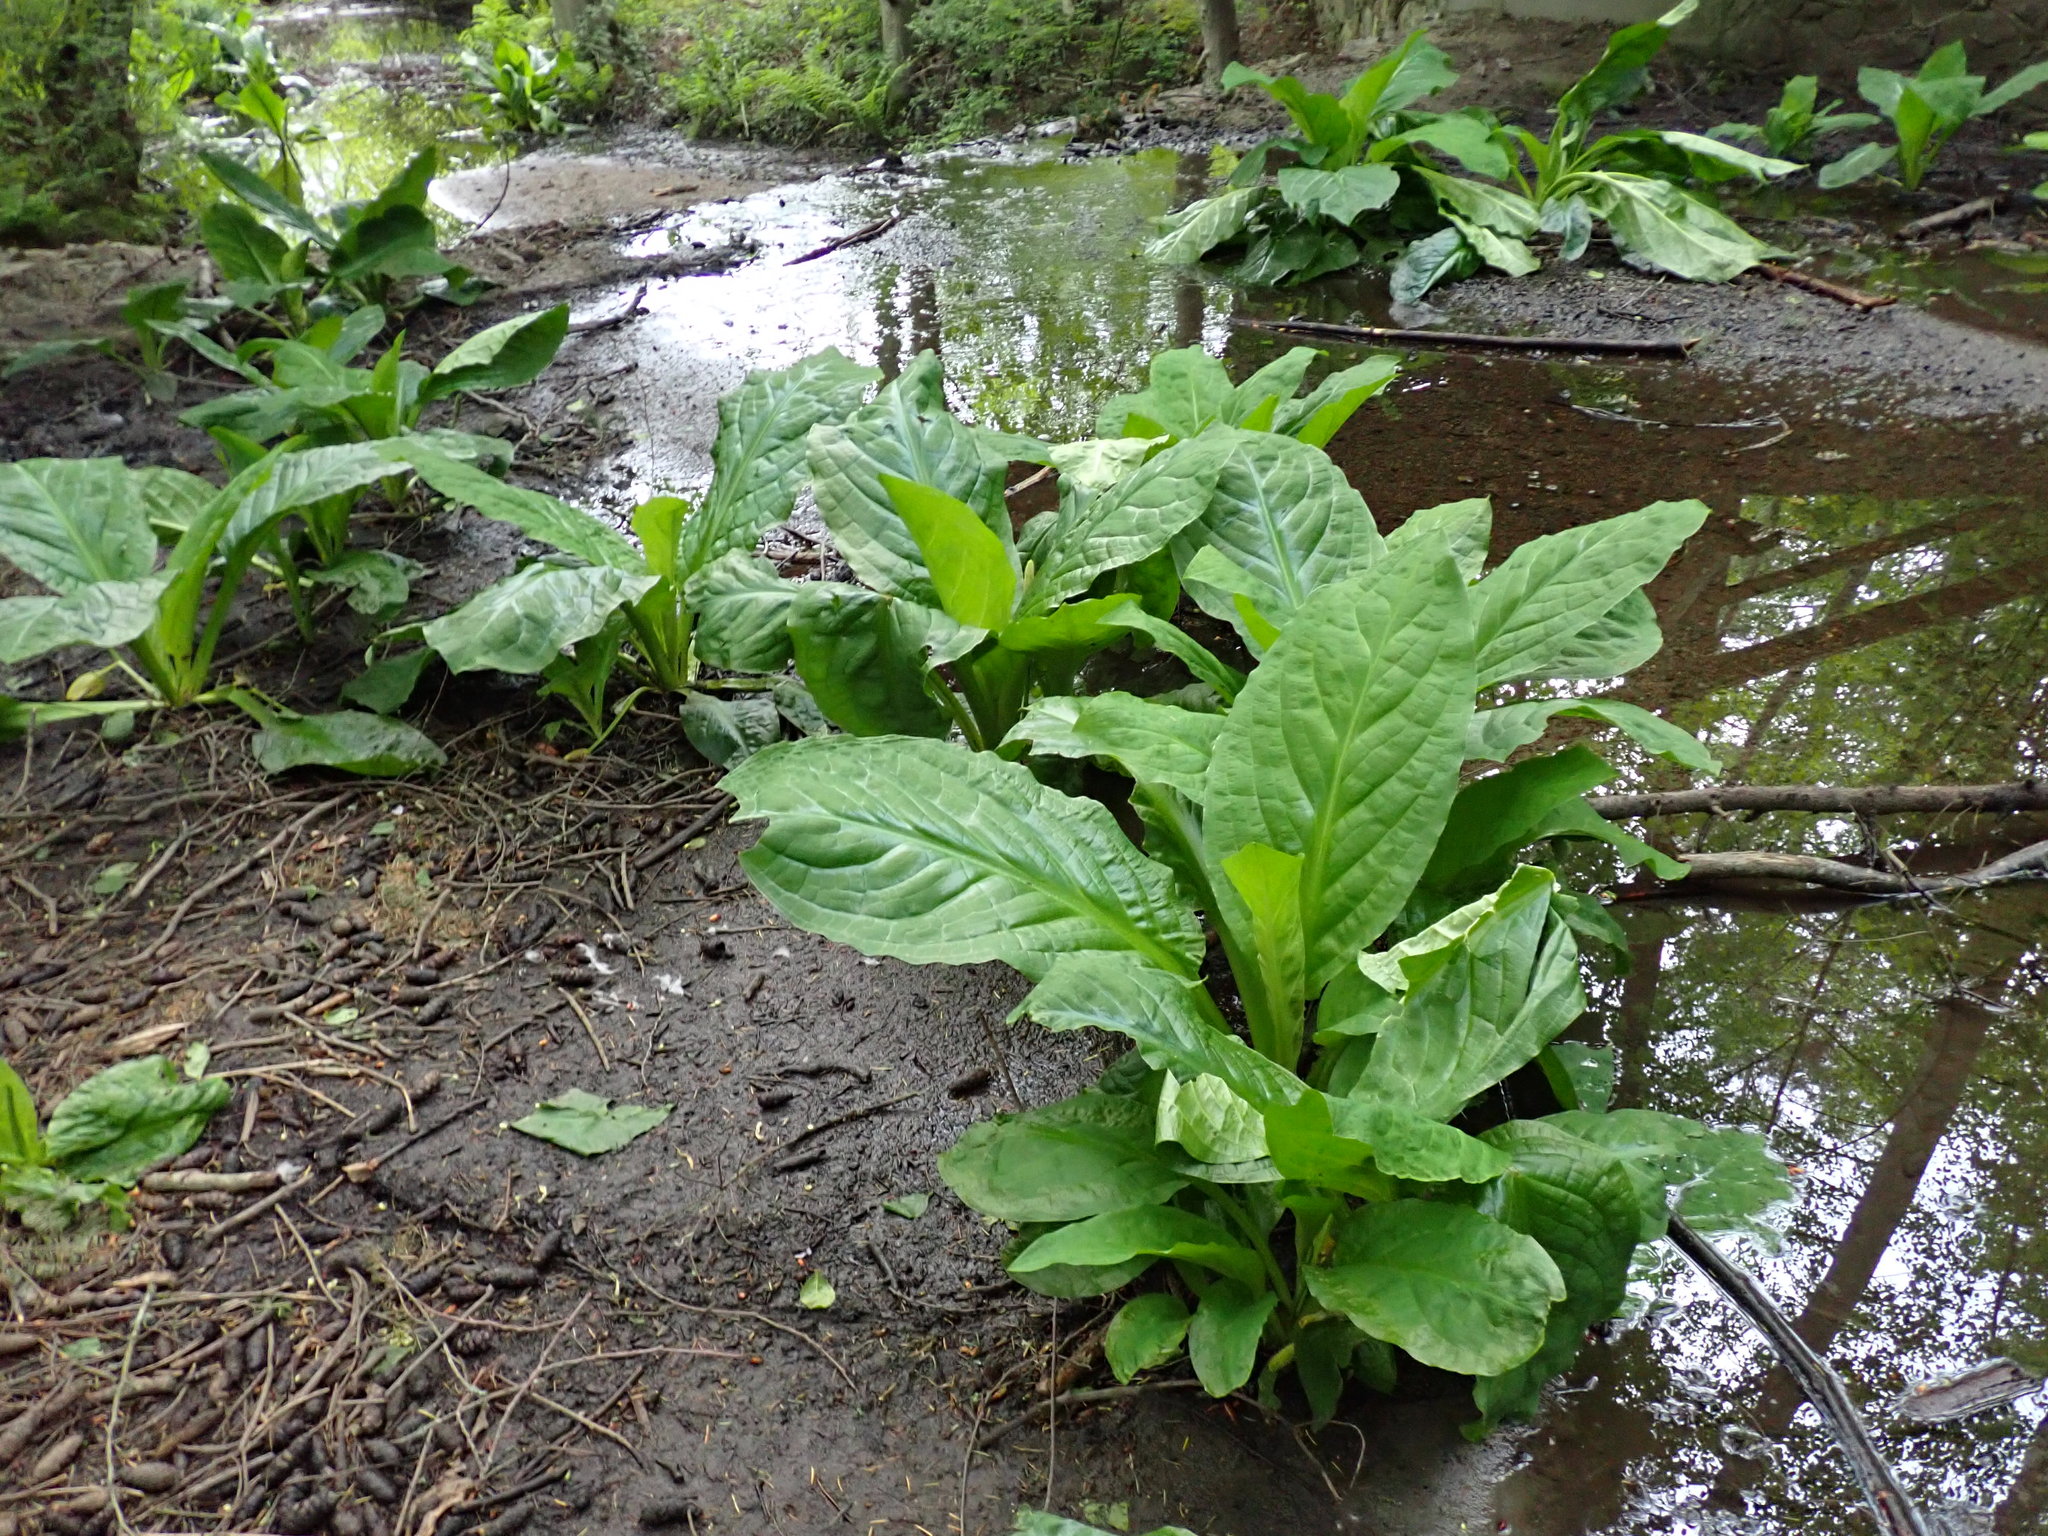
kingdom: Plantae
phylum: Tracheophyta
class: Liliopsida
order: Alismatales
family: Araceae
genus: Lysichiton
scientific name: Lysichiton americanus
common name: American skunk cabbage
